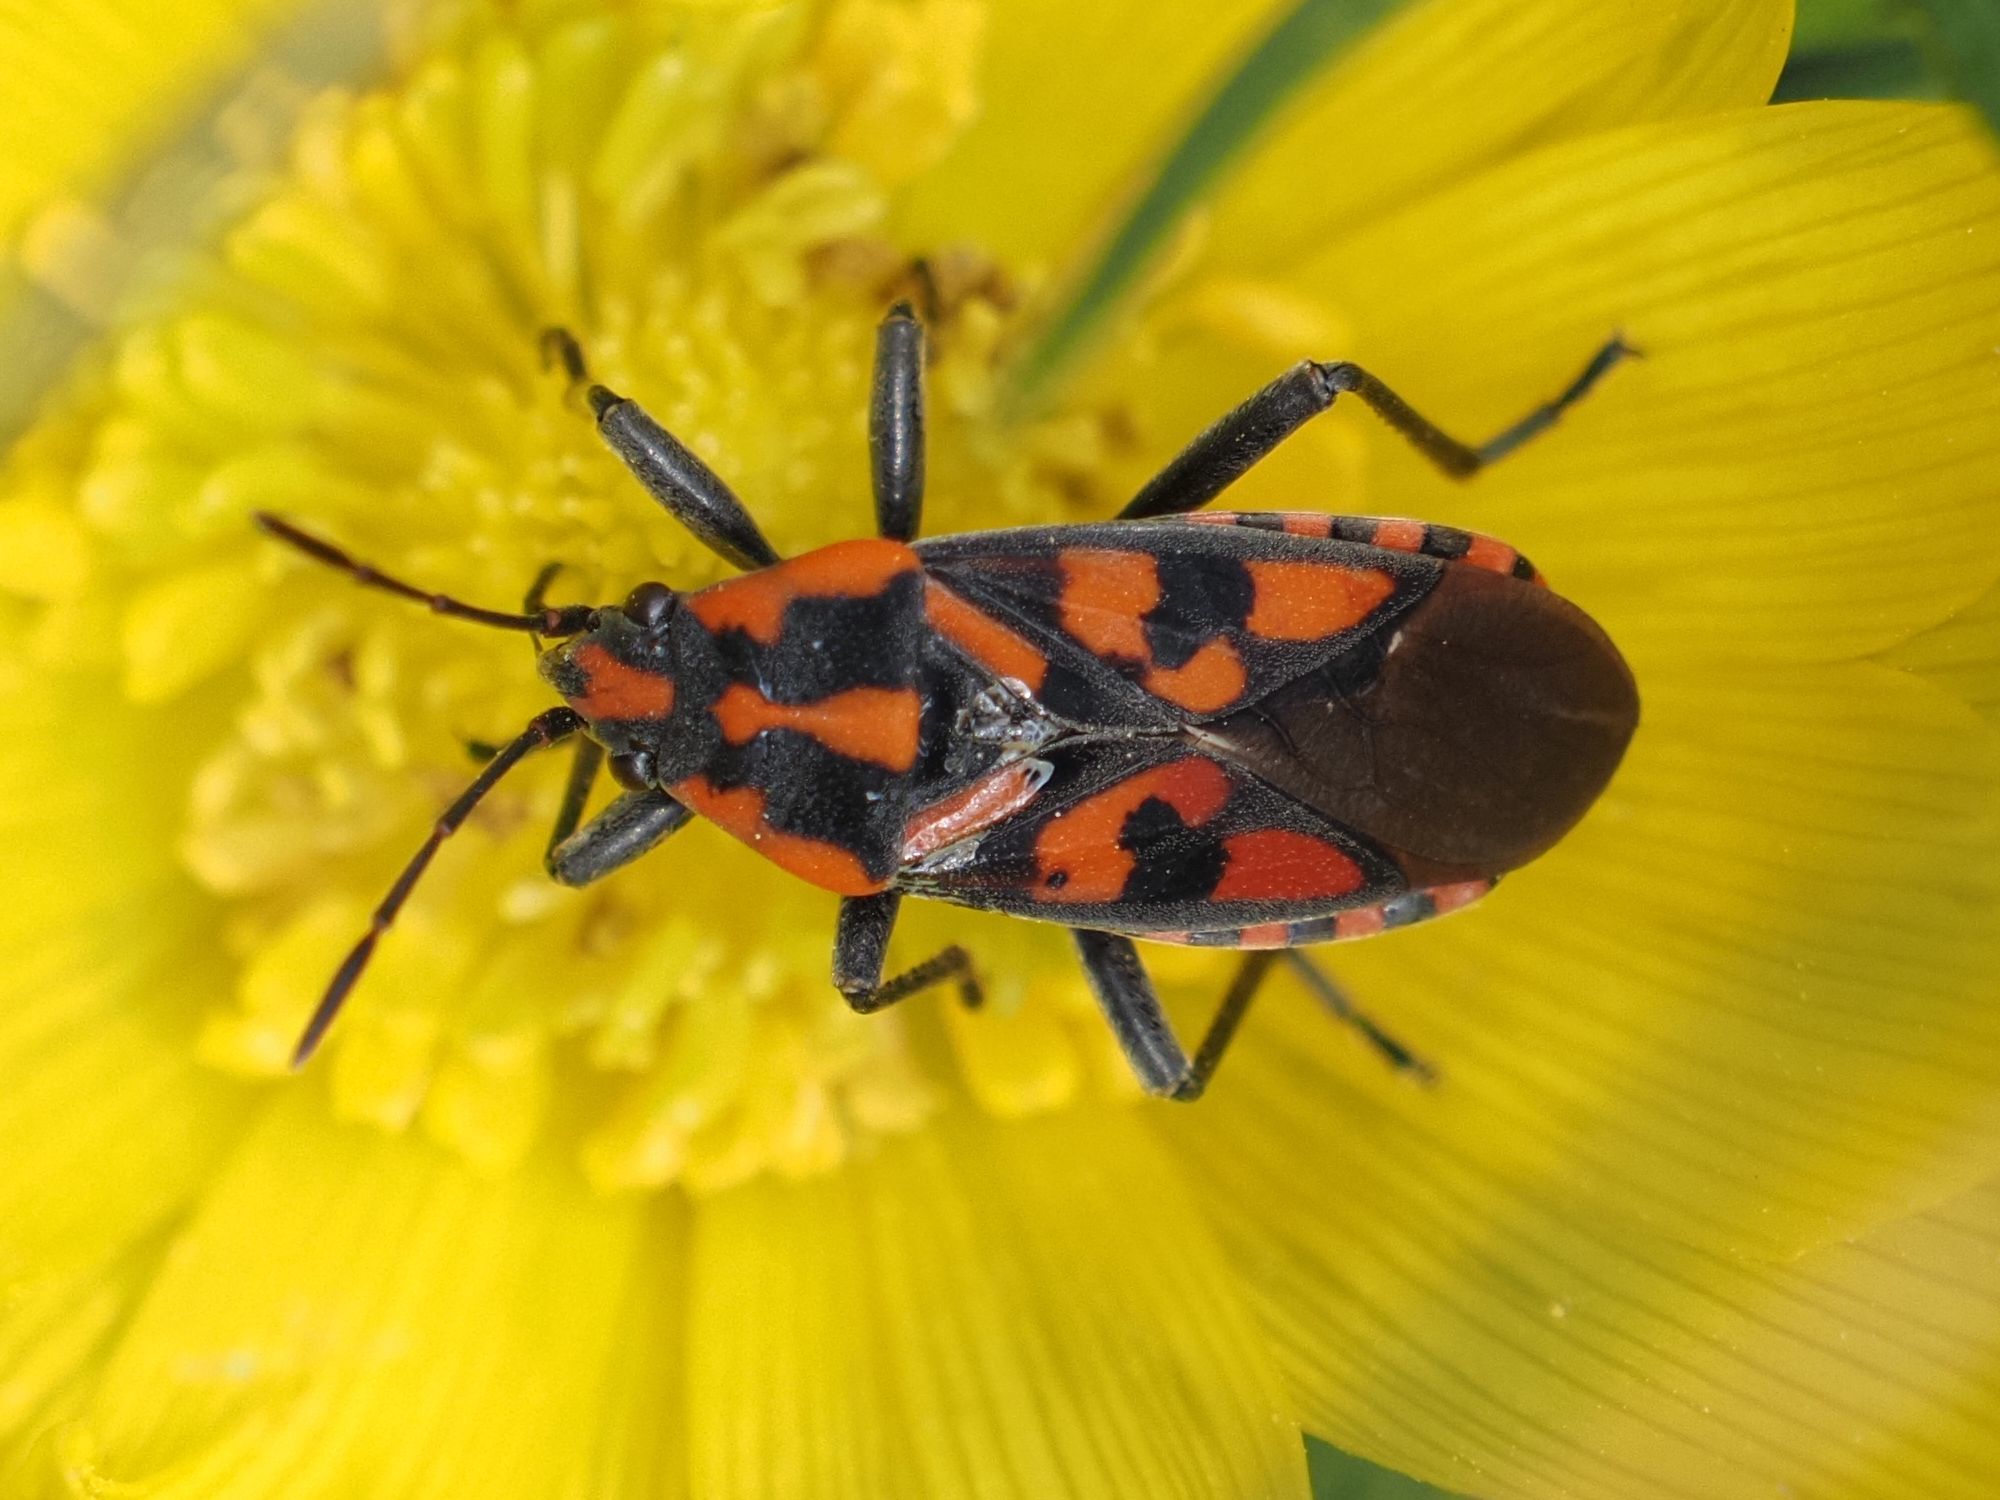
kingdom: Animalia
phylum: Arthropoda
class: Insecta
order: Hemiptera
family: Lygaeidae
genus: Spilostethus
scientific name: Spilostethus saxatilis
